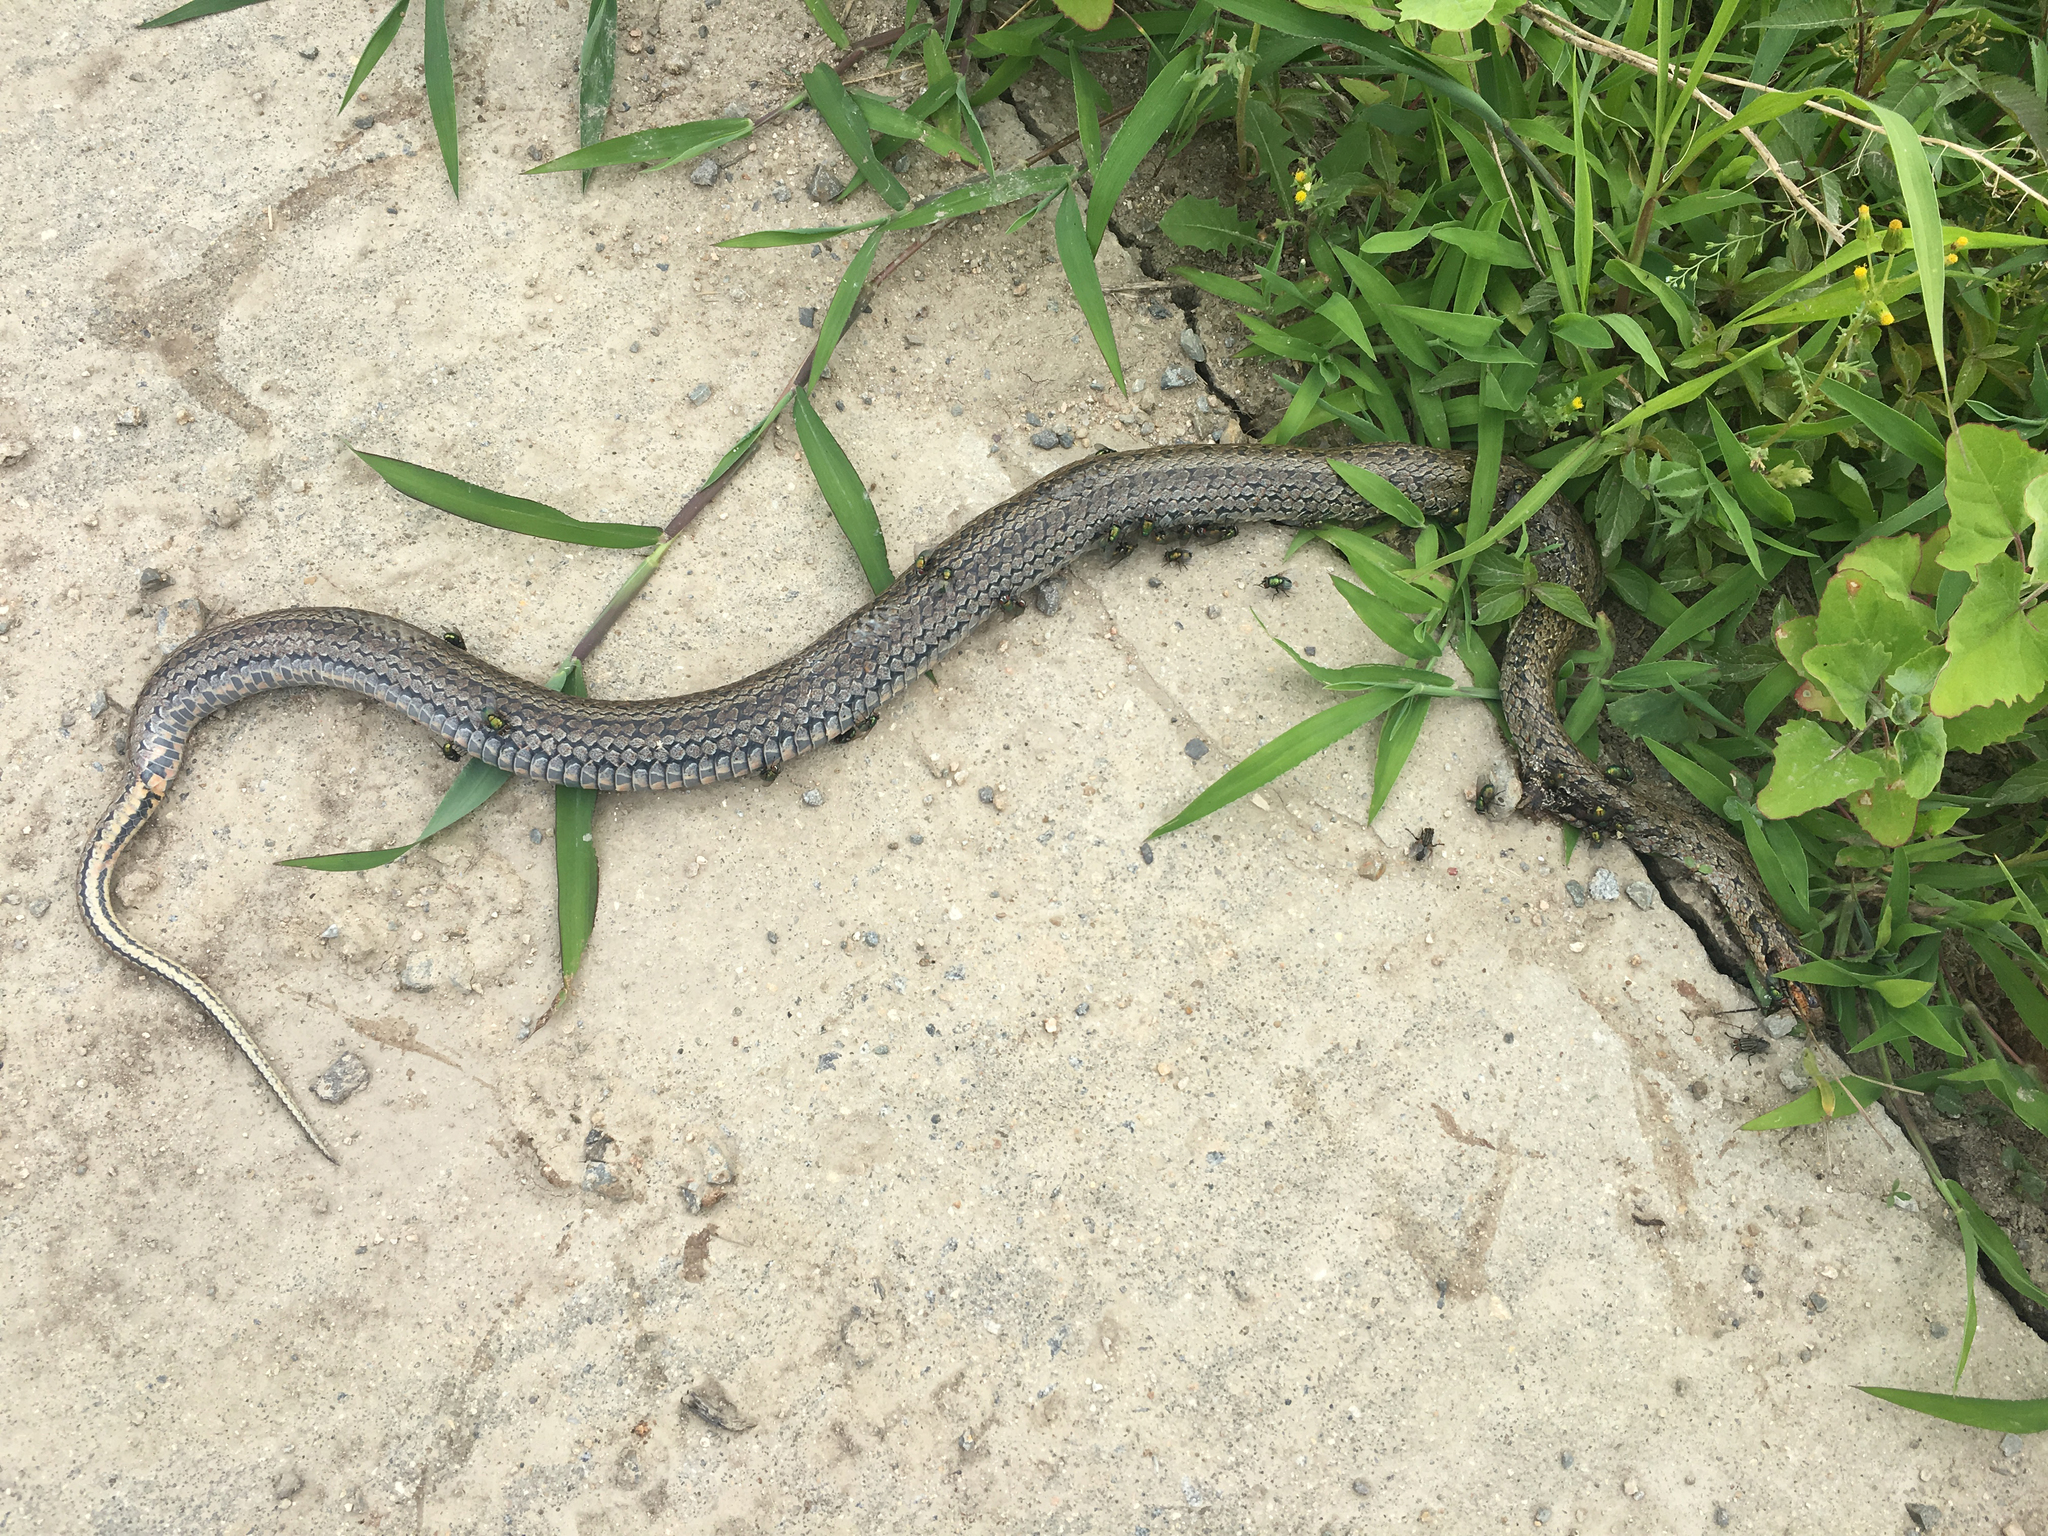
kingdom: Animalia
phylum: Chordata
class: Squamata
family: Colubridae
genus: Oocatochus
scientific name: Oocatochus rufodorsatus
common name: Frog-eating rat snake
